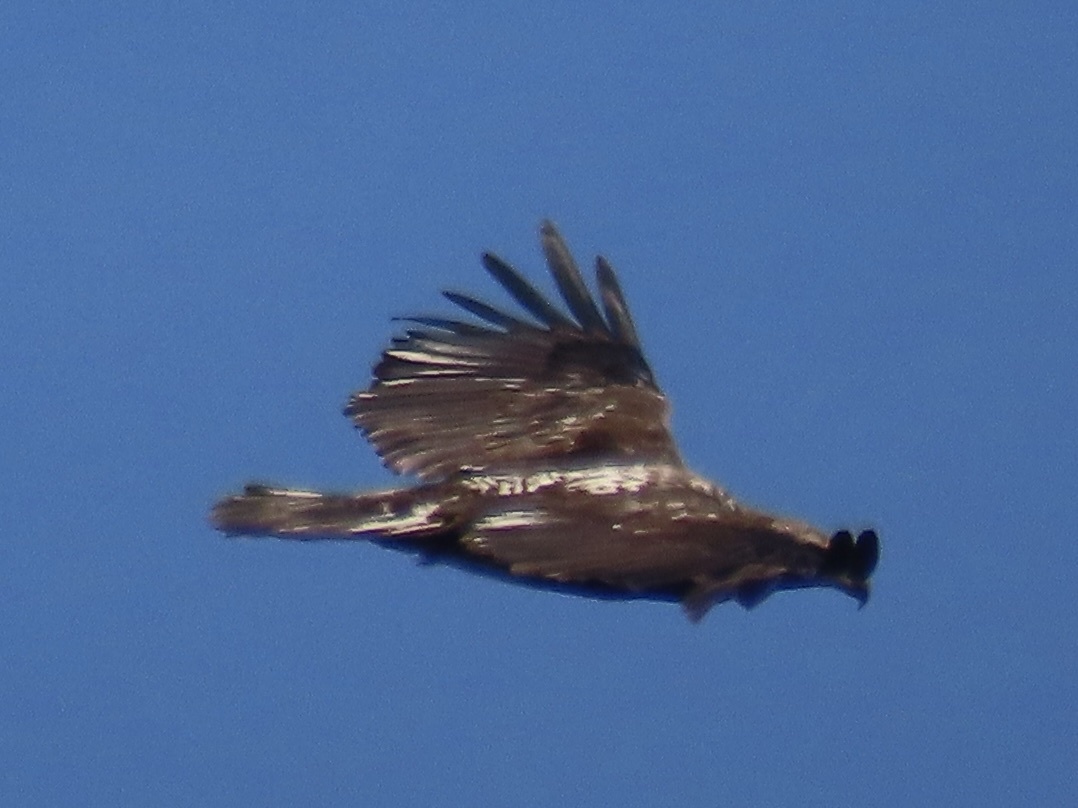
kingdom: Animalia
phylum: Chordata
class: Aves
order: Accipitriformes
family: Accipitridae
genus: Haliaeetus
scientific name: Haliaeetus leucocephalus
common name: Bald eagle
